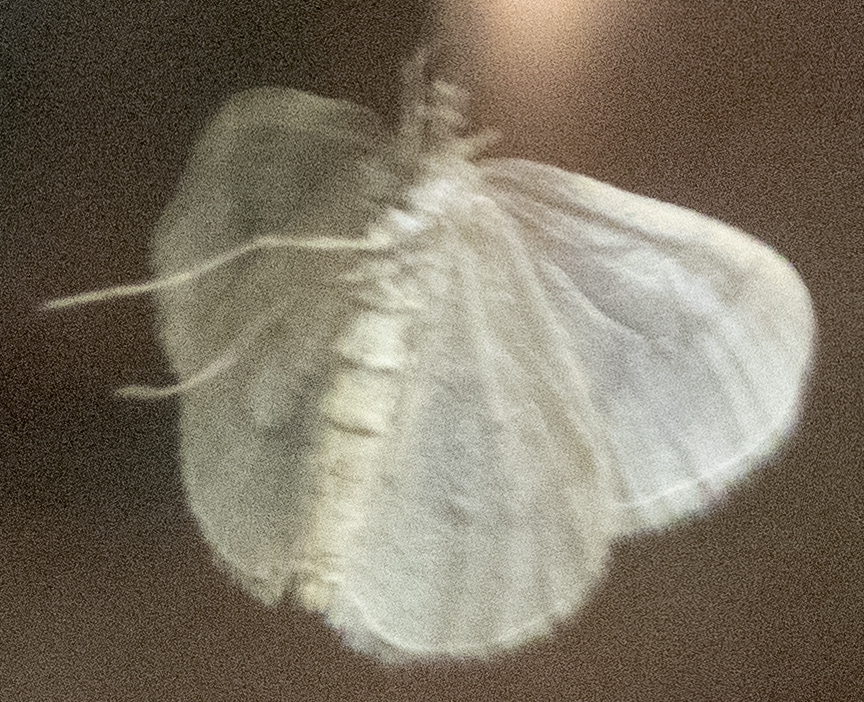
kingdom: Animalia
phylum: Arthropoda
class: Insecta
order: Lepidoptera
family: Geometridae
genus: Operophtera
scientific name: Operophtera bruceata
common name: Bruce spanworm
